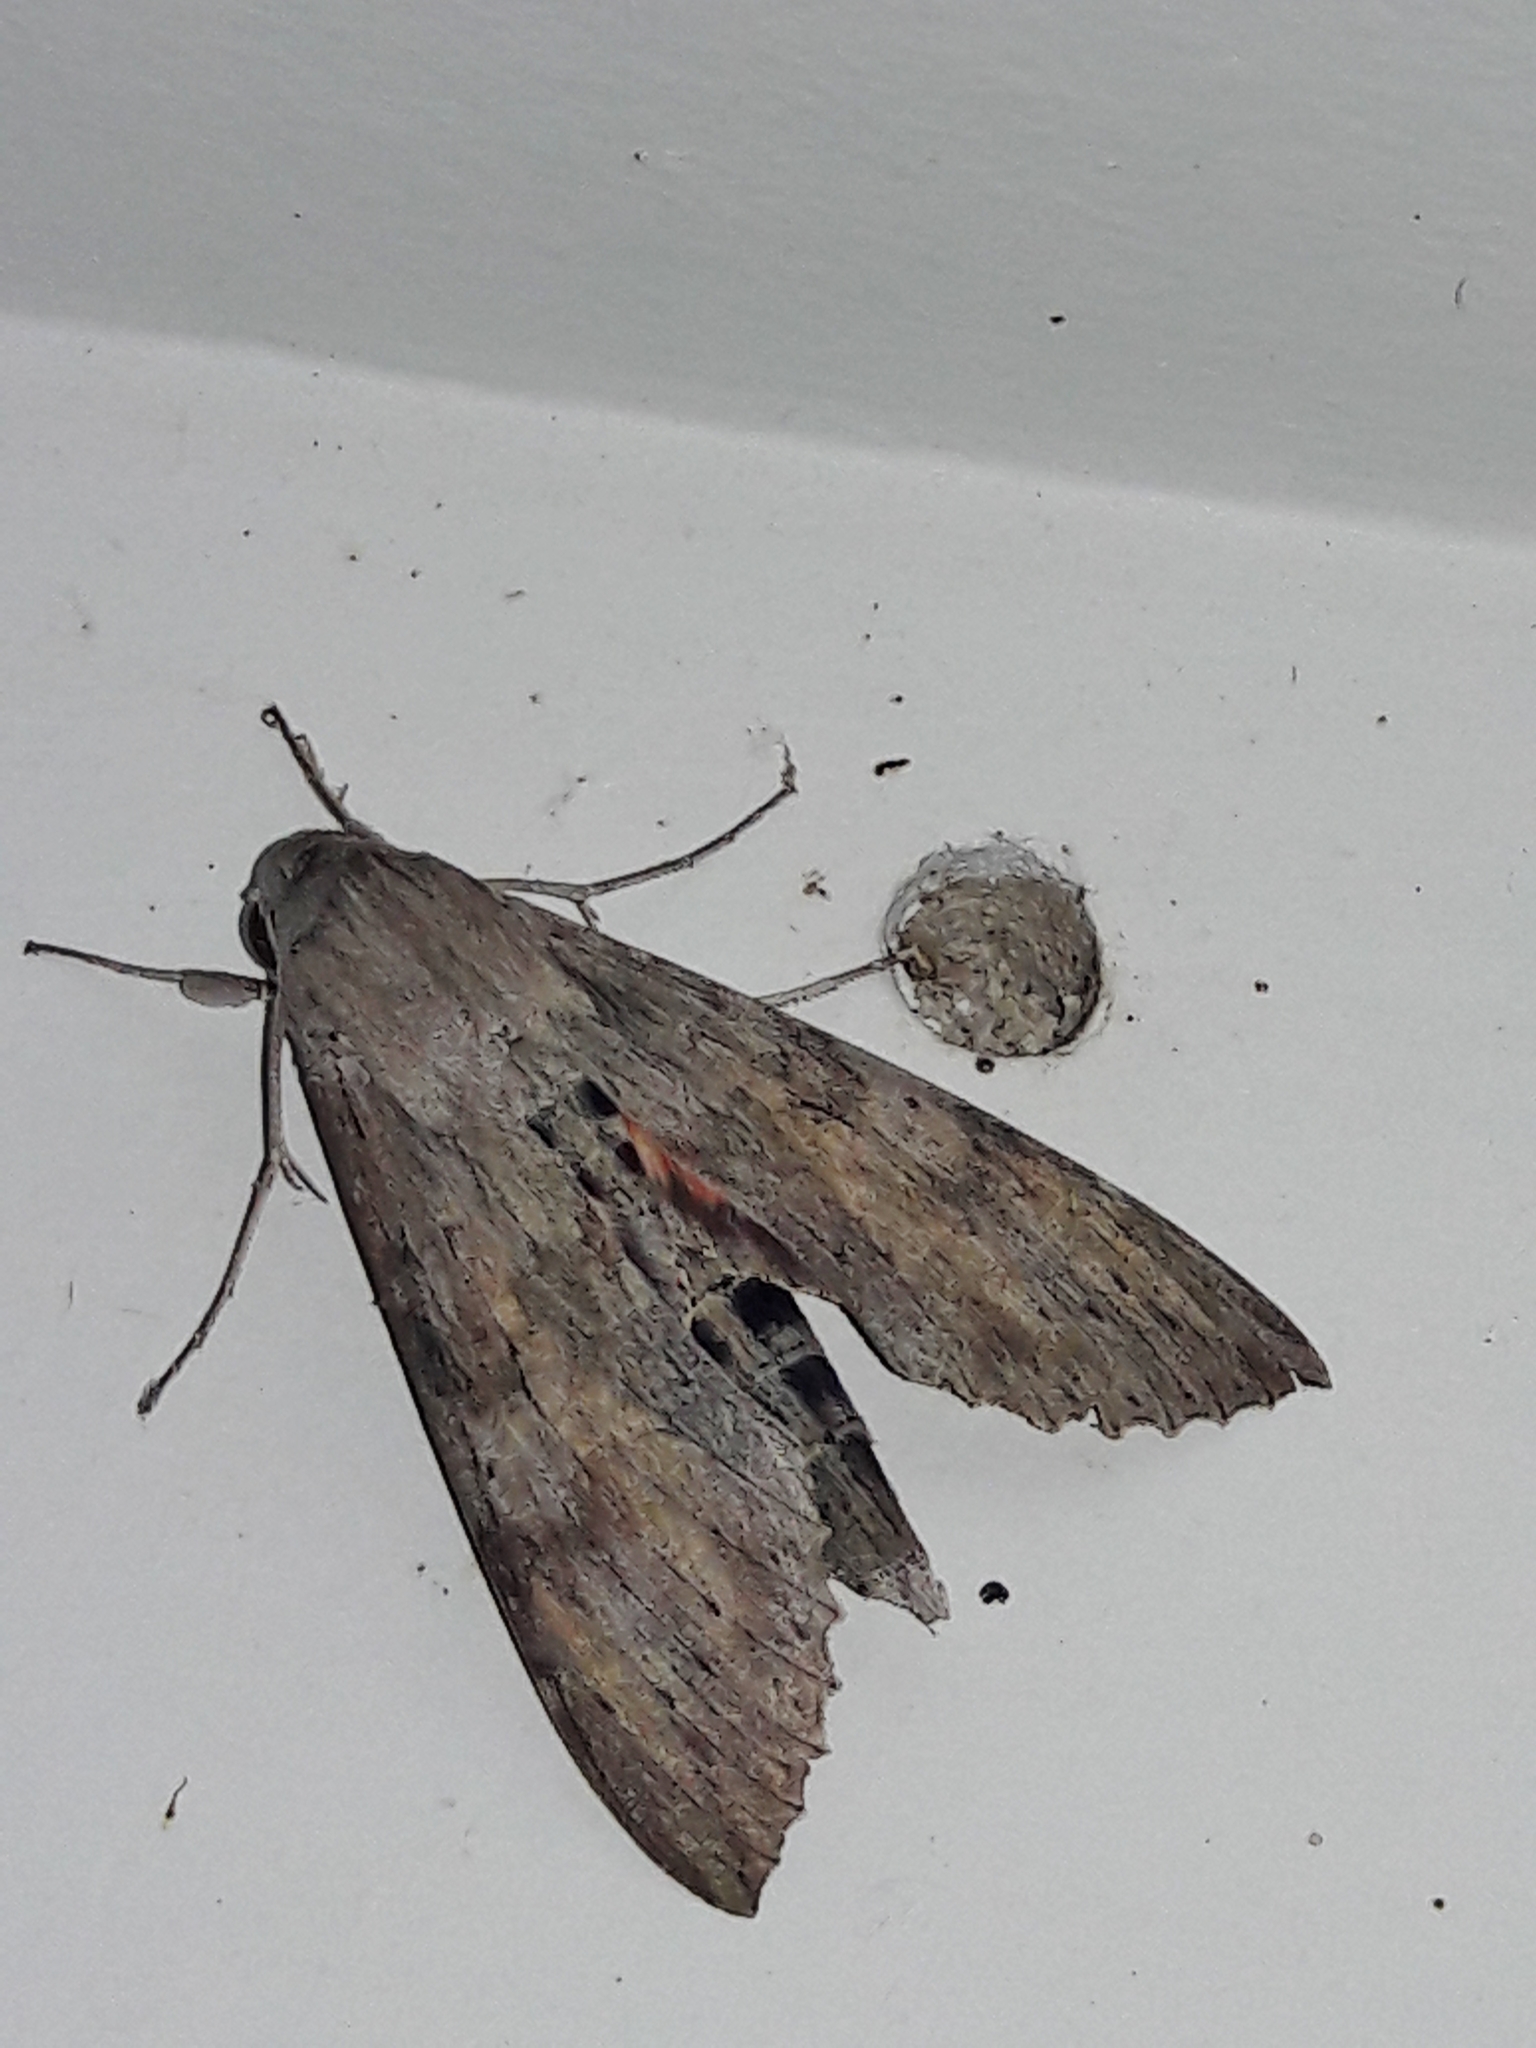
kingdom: Animalia
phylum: Arthropoda
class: Insecta
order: Lepidoptera
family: Sphingidae
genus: Erinnyis
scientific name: Erinnyis ello
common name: Ello sphinx
